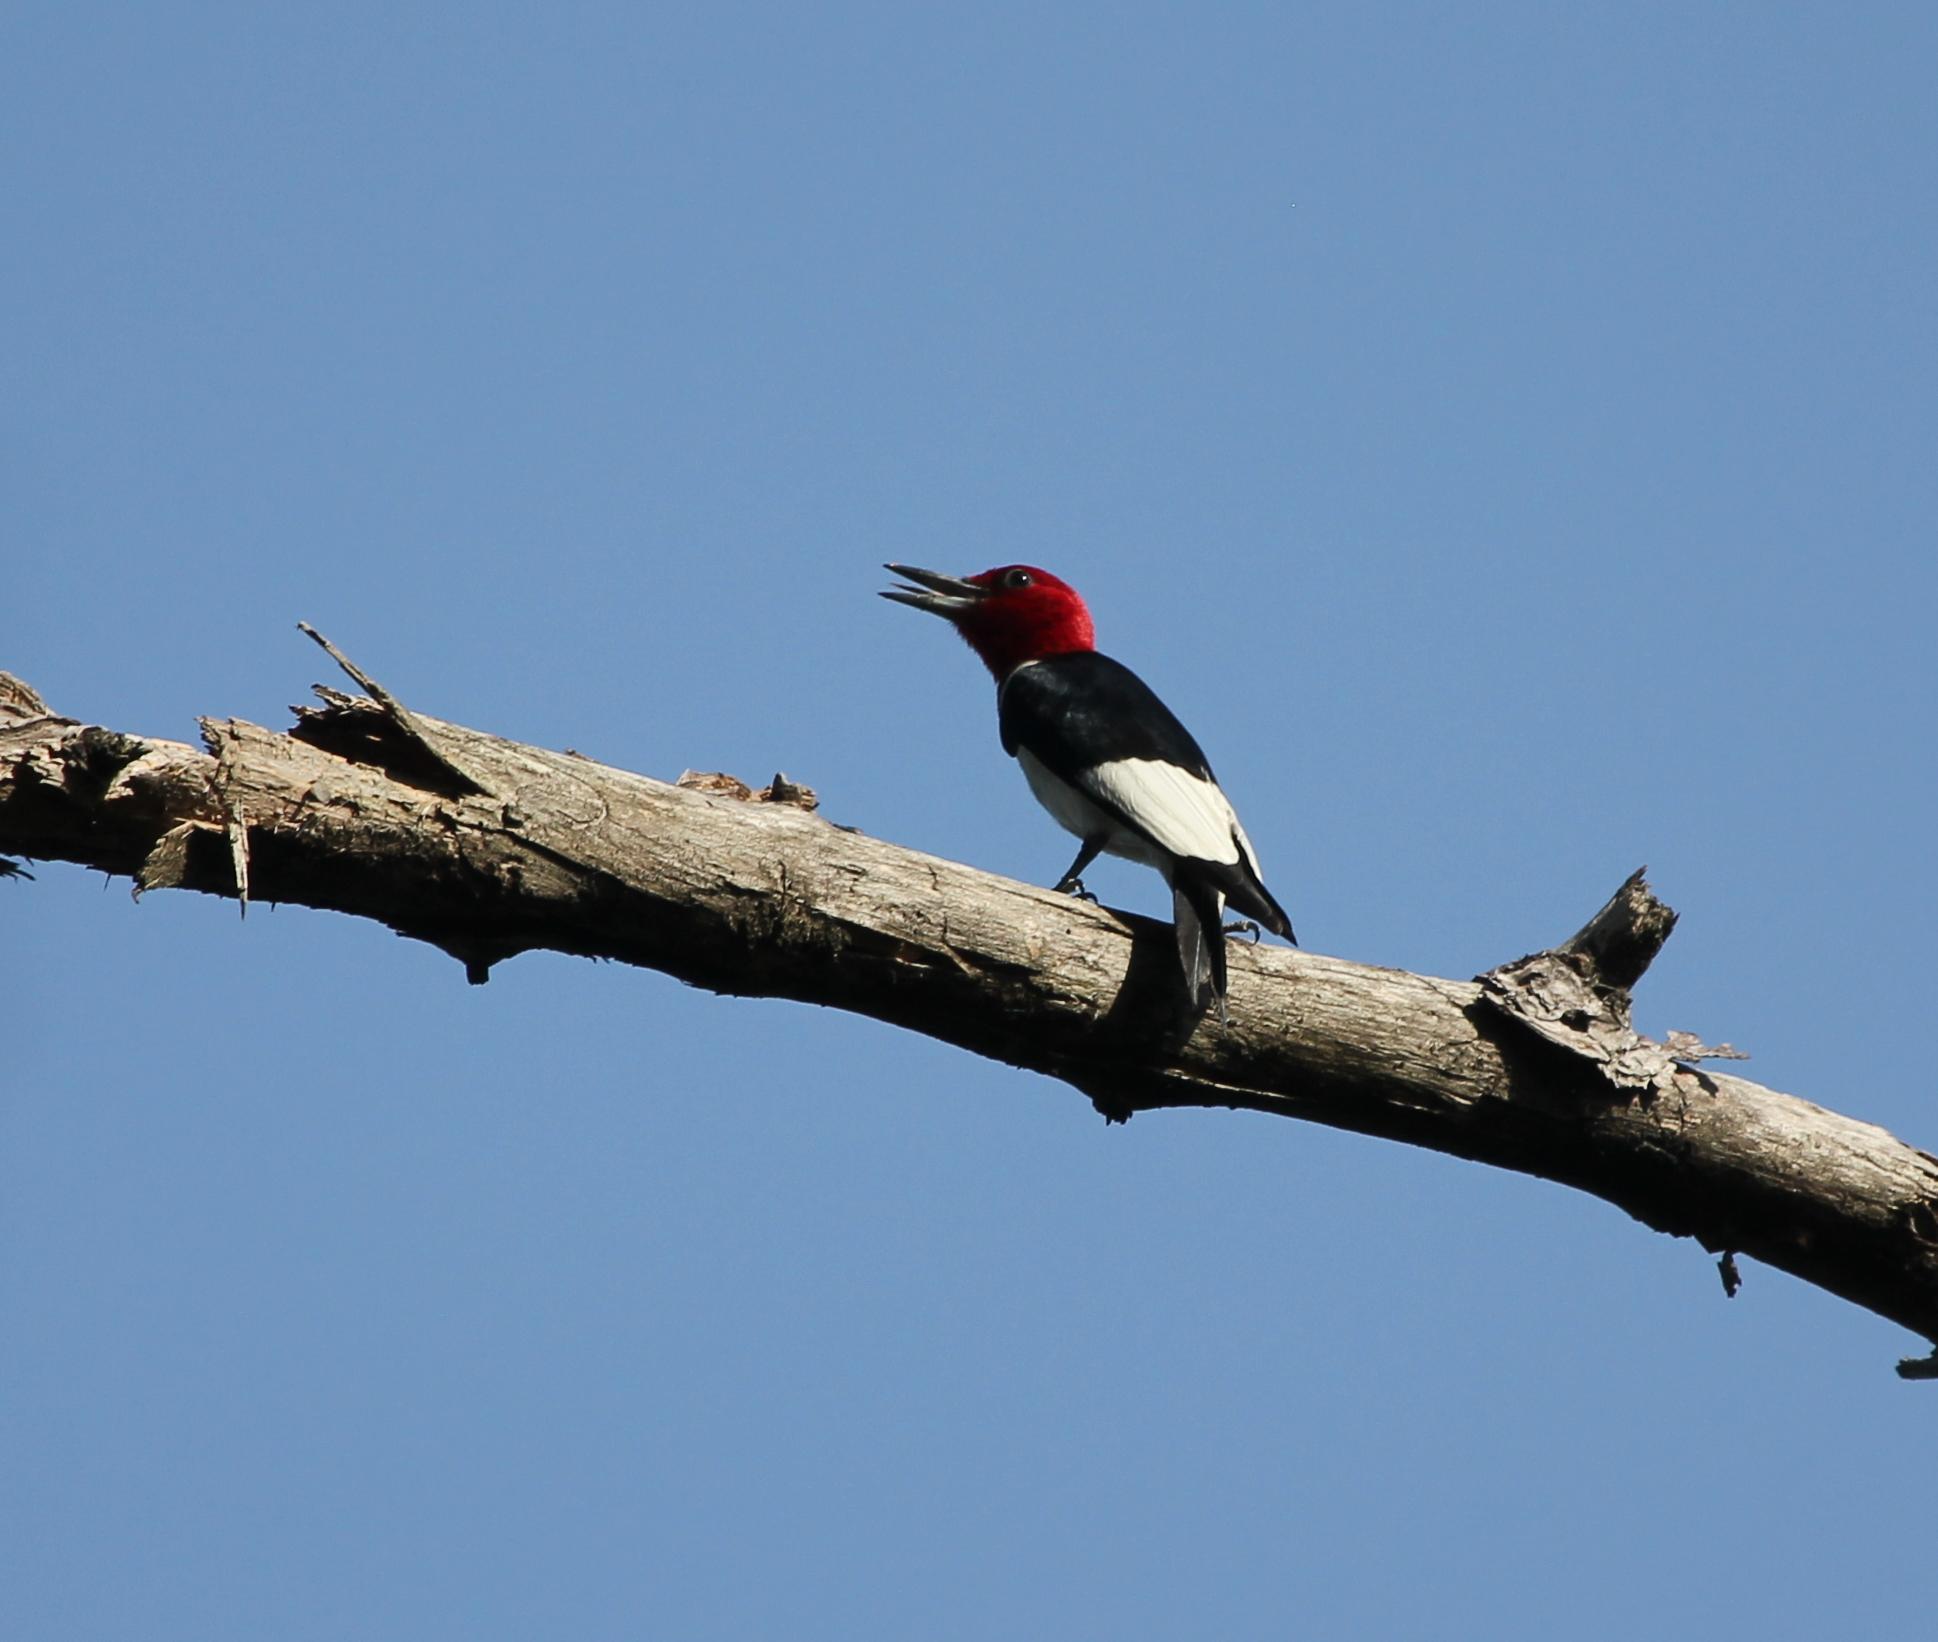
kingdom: Animalia
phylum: Chordata
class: Aves
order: Piciformes
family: Picidae
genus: Melanerpes
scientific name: Melanerpes erythrocephalus
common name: Red-headed woodpecker
